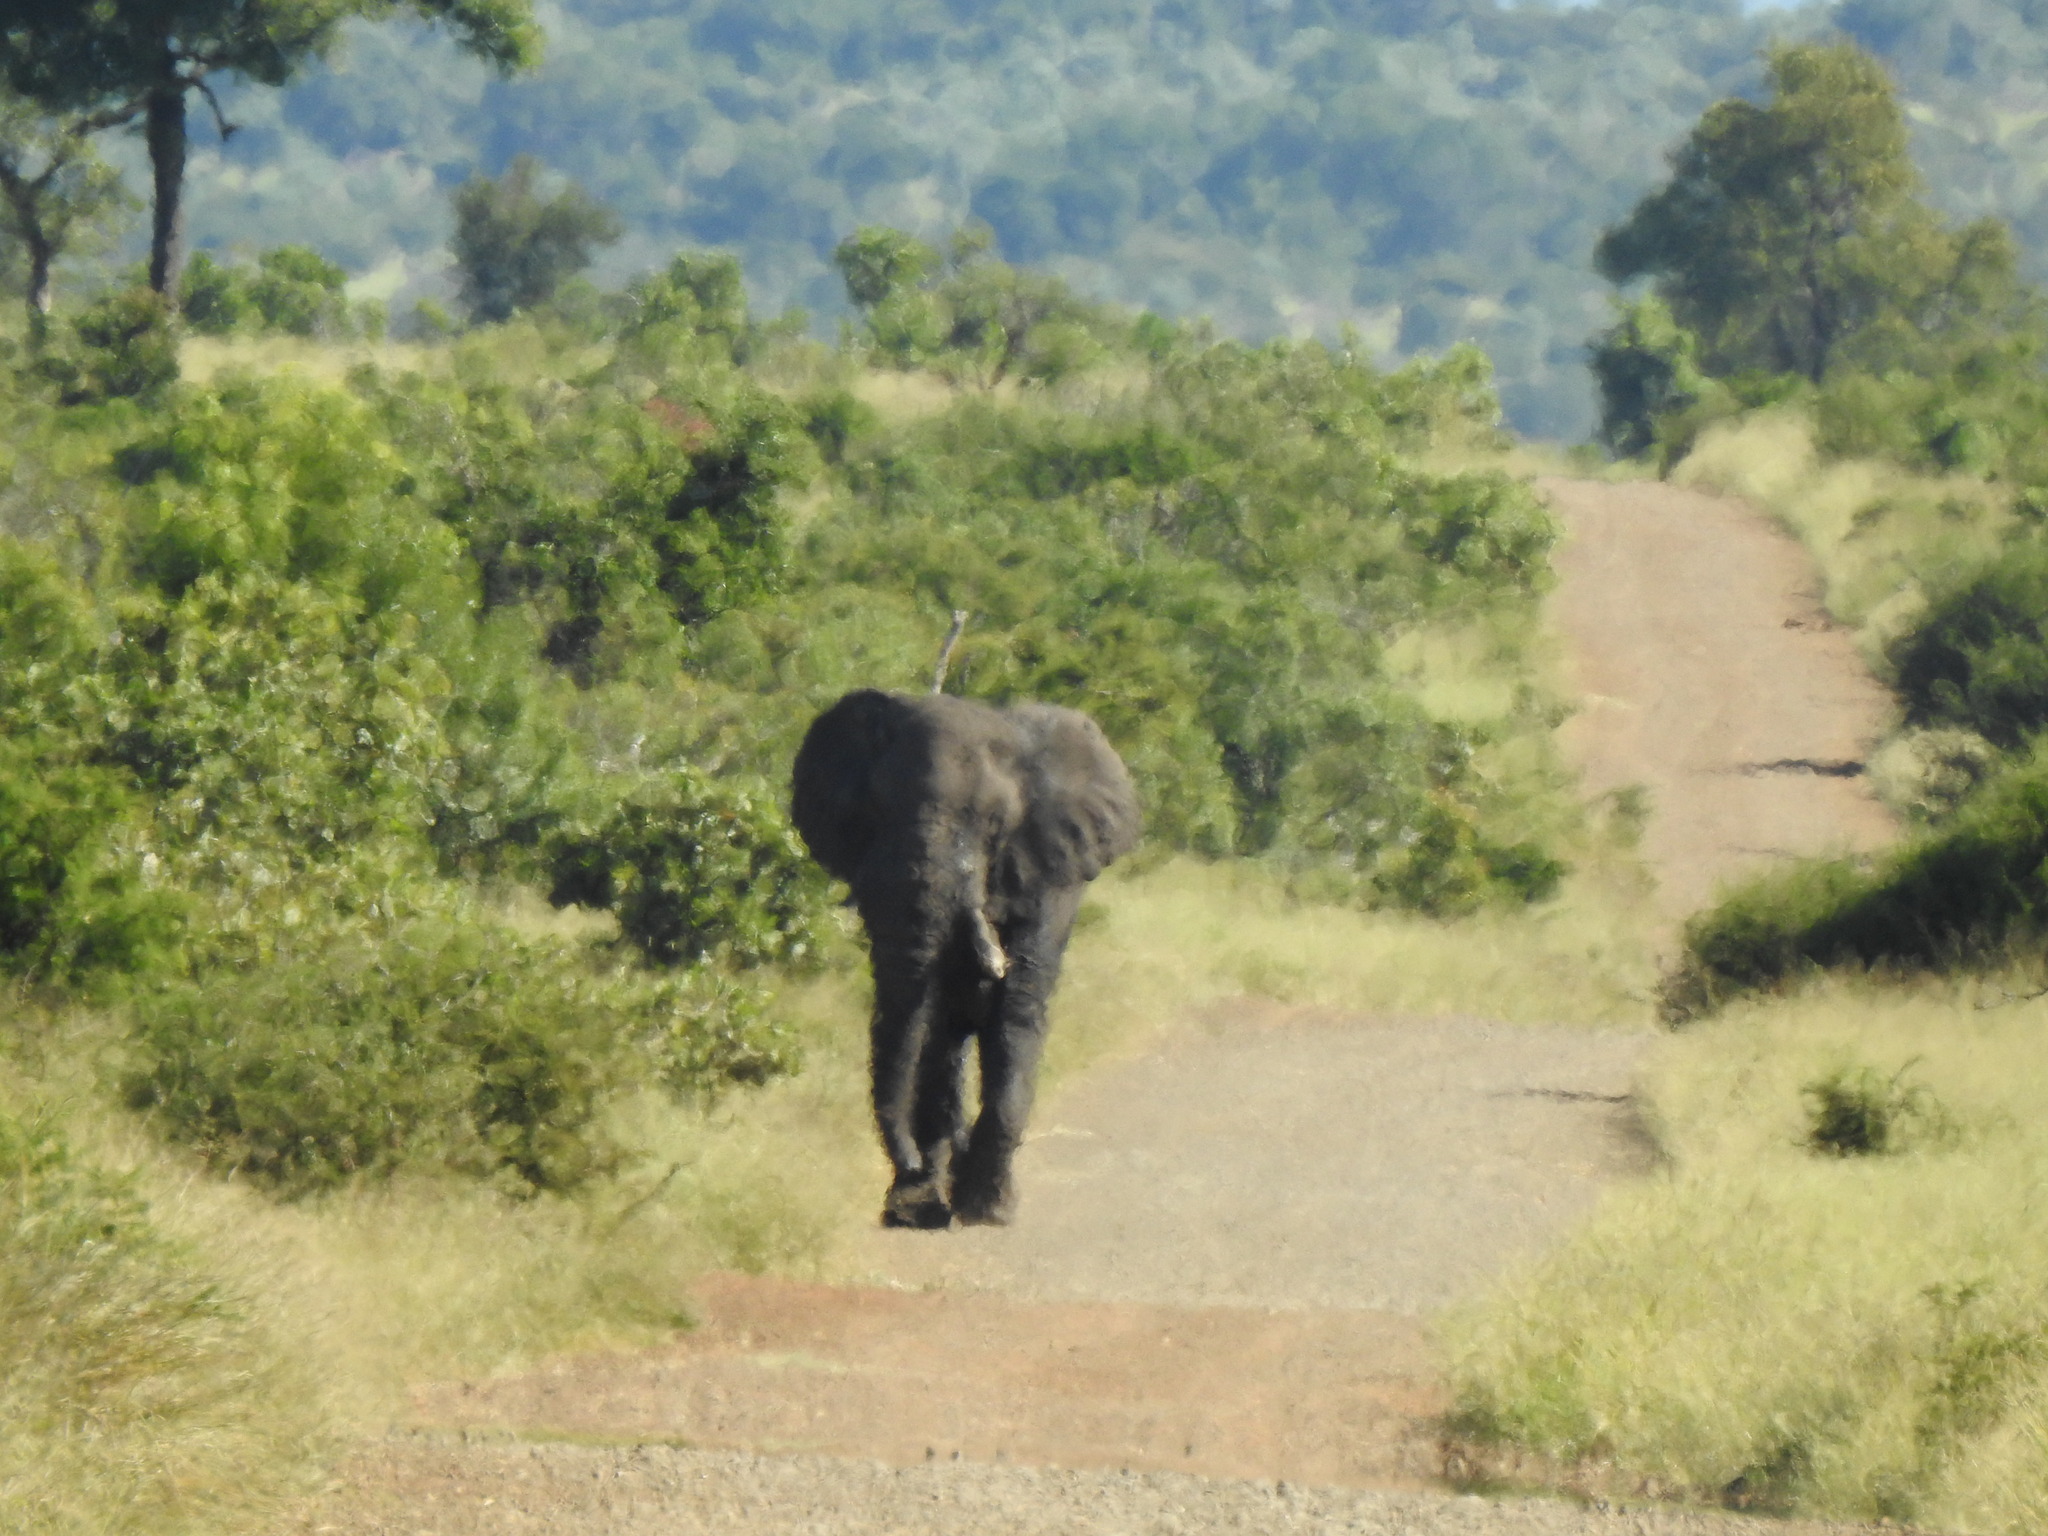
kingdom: Animalia
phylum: Chordata
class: Mammalia
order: Proboscidea
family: Elephantidae
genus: Loxodonta
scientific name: Loxodonta africana
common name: African elephant
